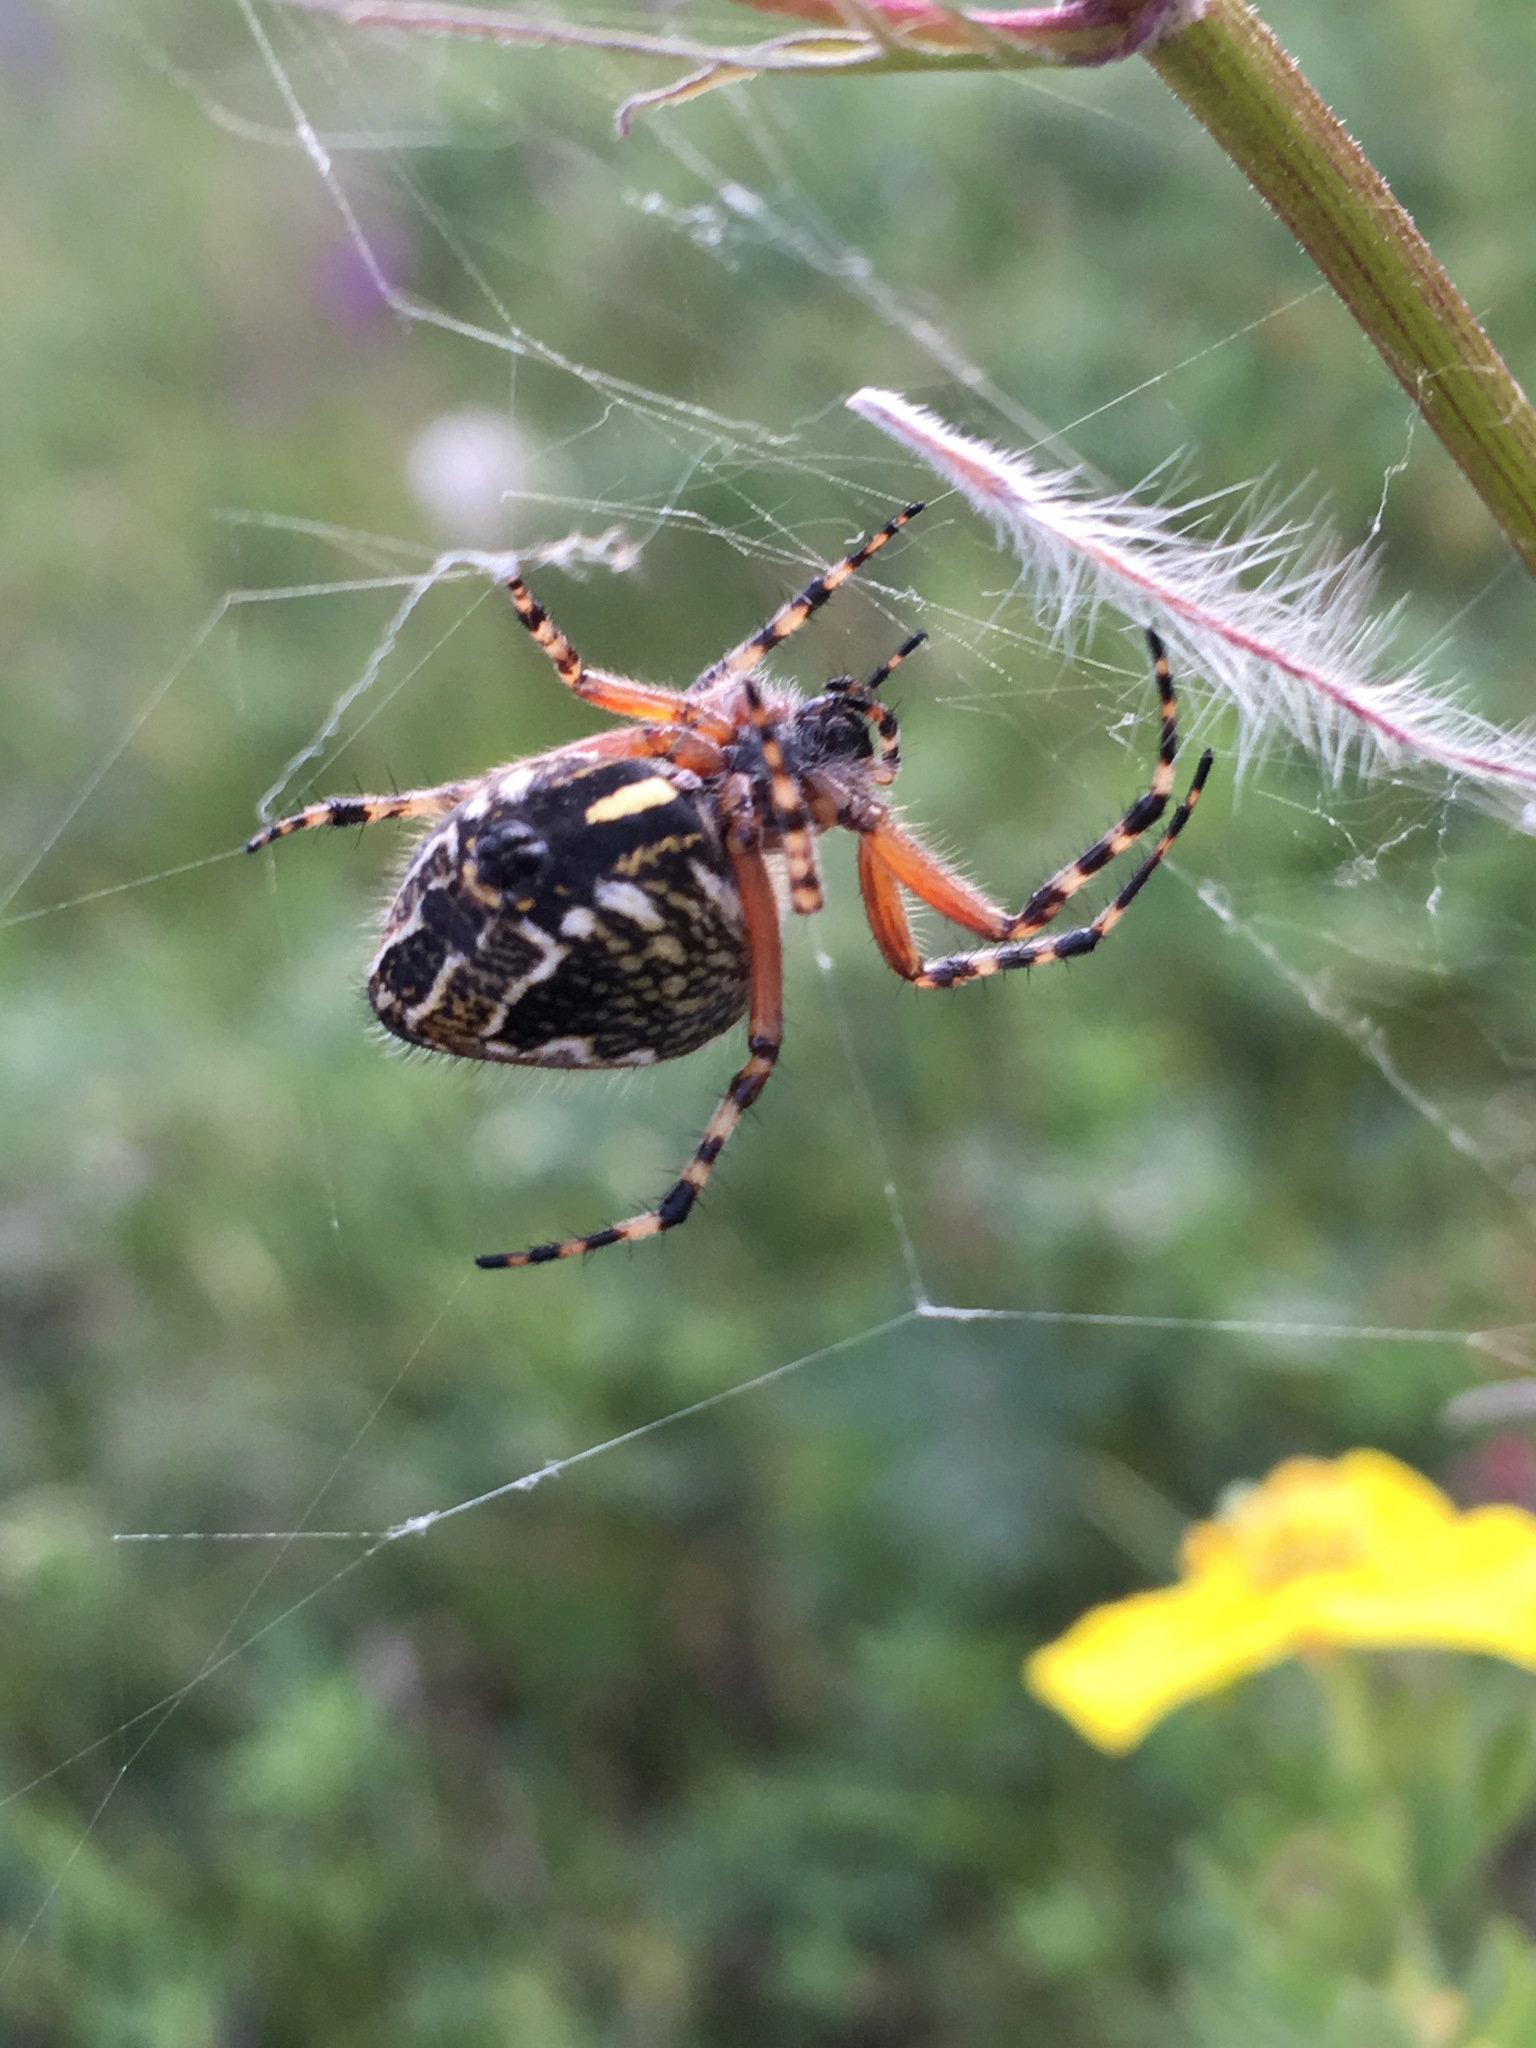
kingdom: Animalia
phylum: Arthropoda
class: Arachnida
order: Araneae
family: Araneidae
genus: Aculepeira
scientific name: Aculepeira packardi
